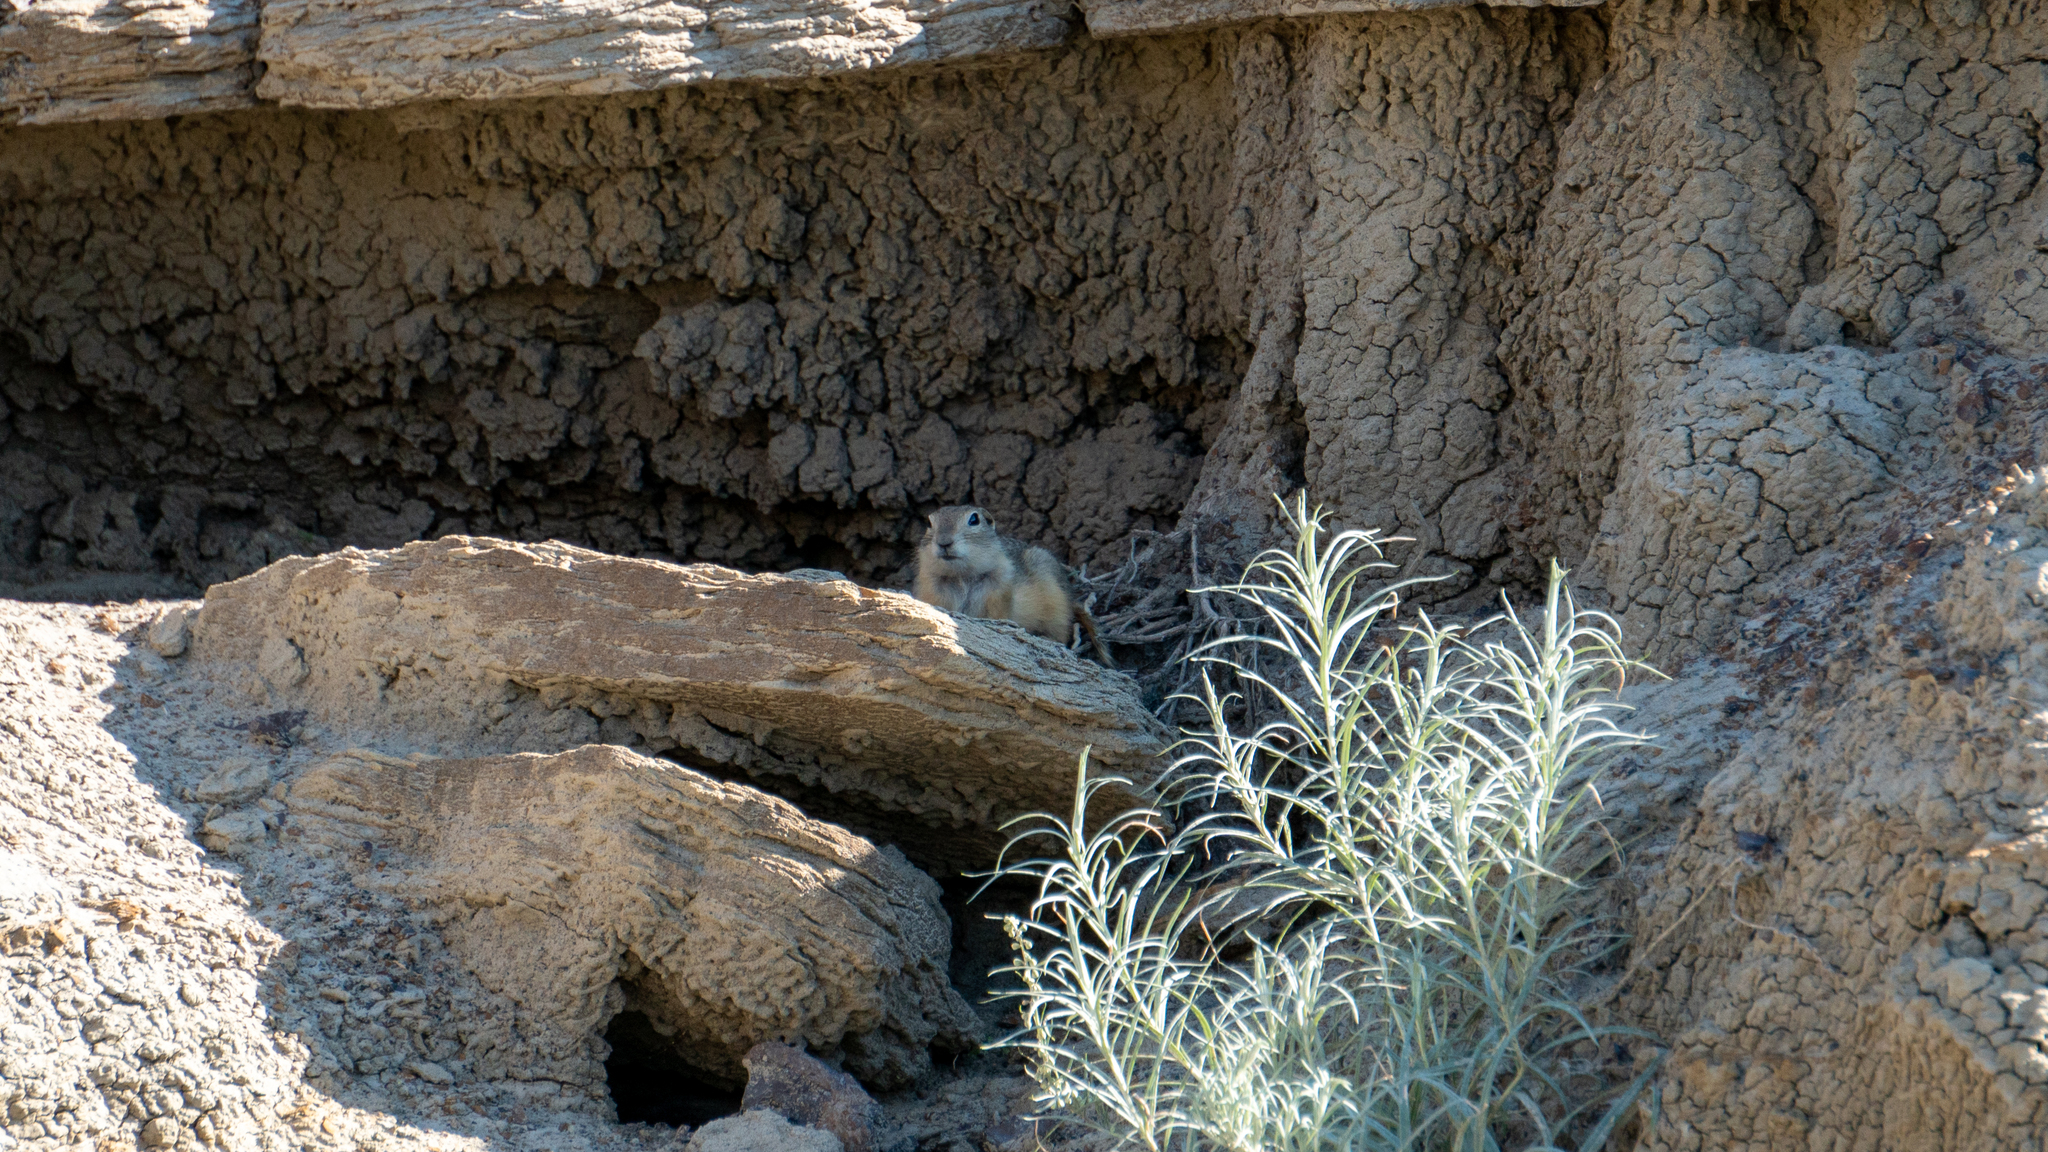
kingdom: Animalia
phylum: Chordata
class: Mammalia
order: Rodentia
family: Sciuridae
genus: Urocitellus
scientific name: Urocitellus richardsonii
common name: Richardson's ground squirrel
